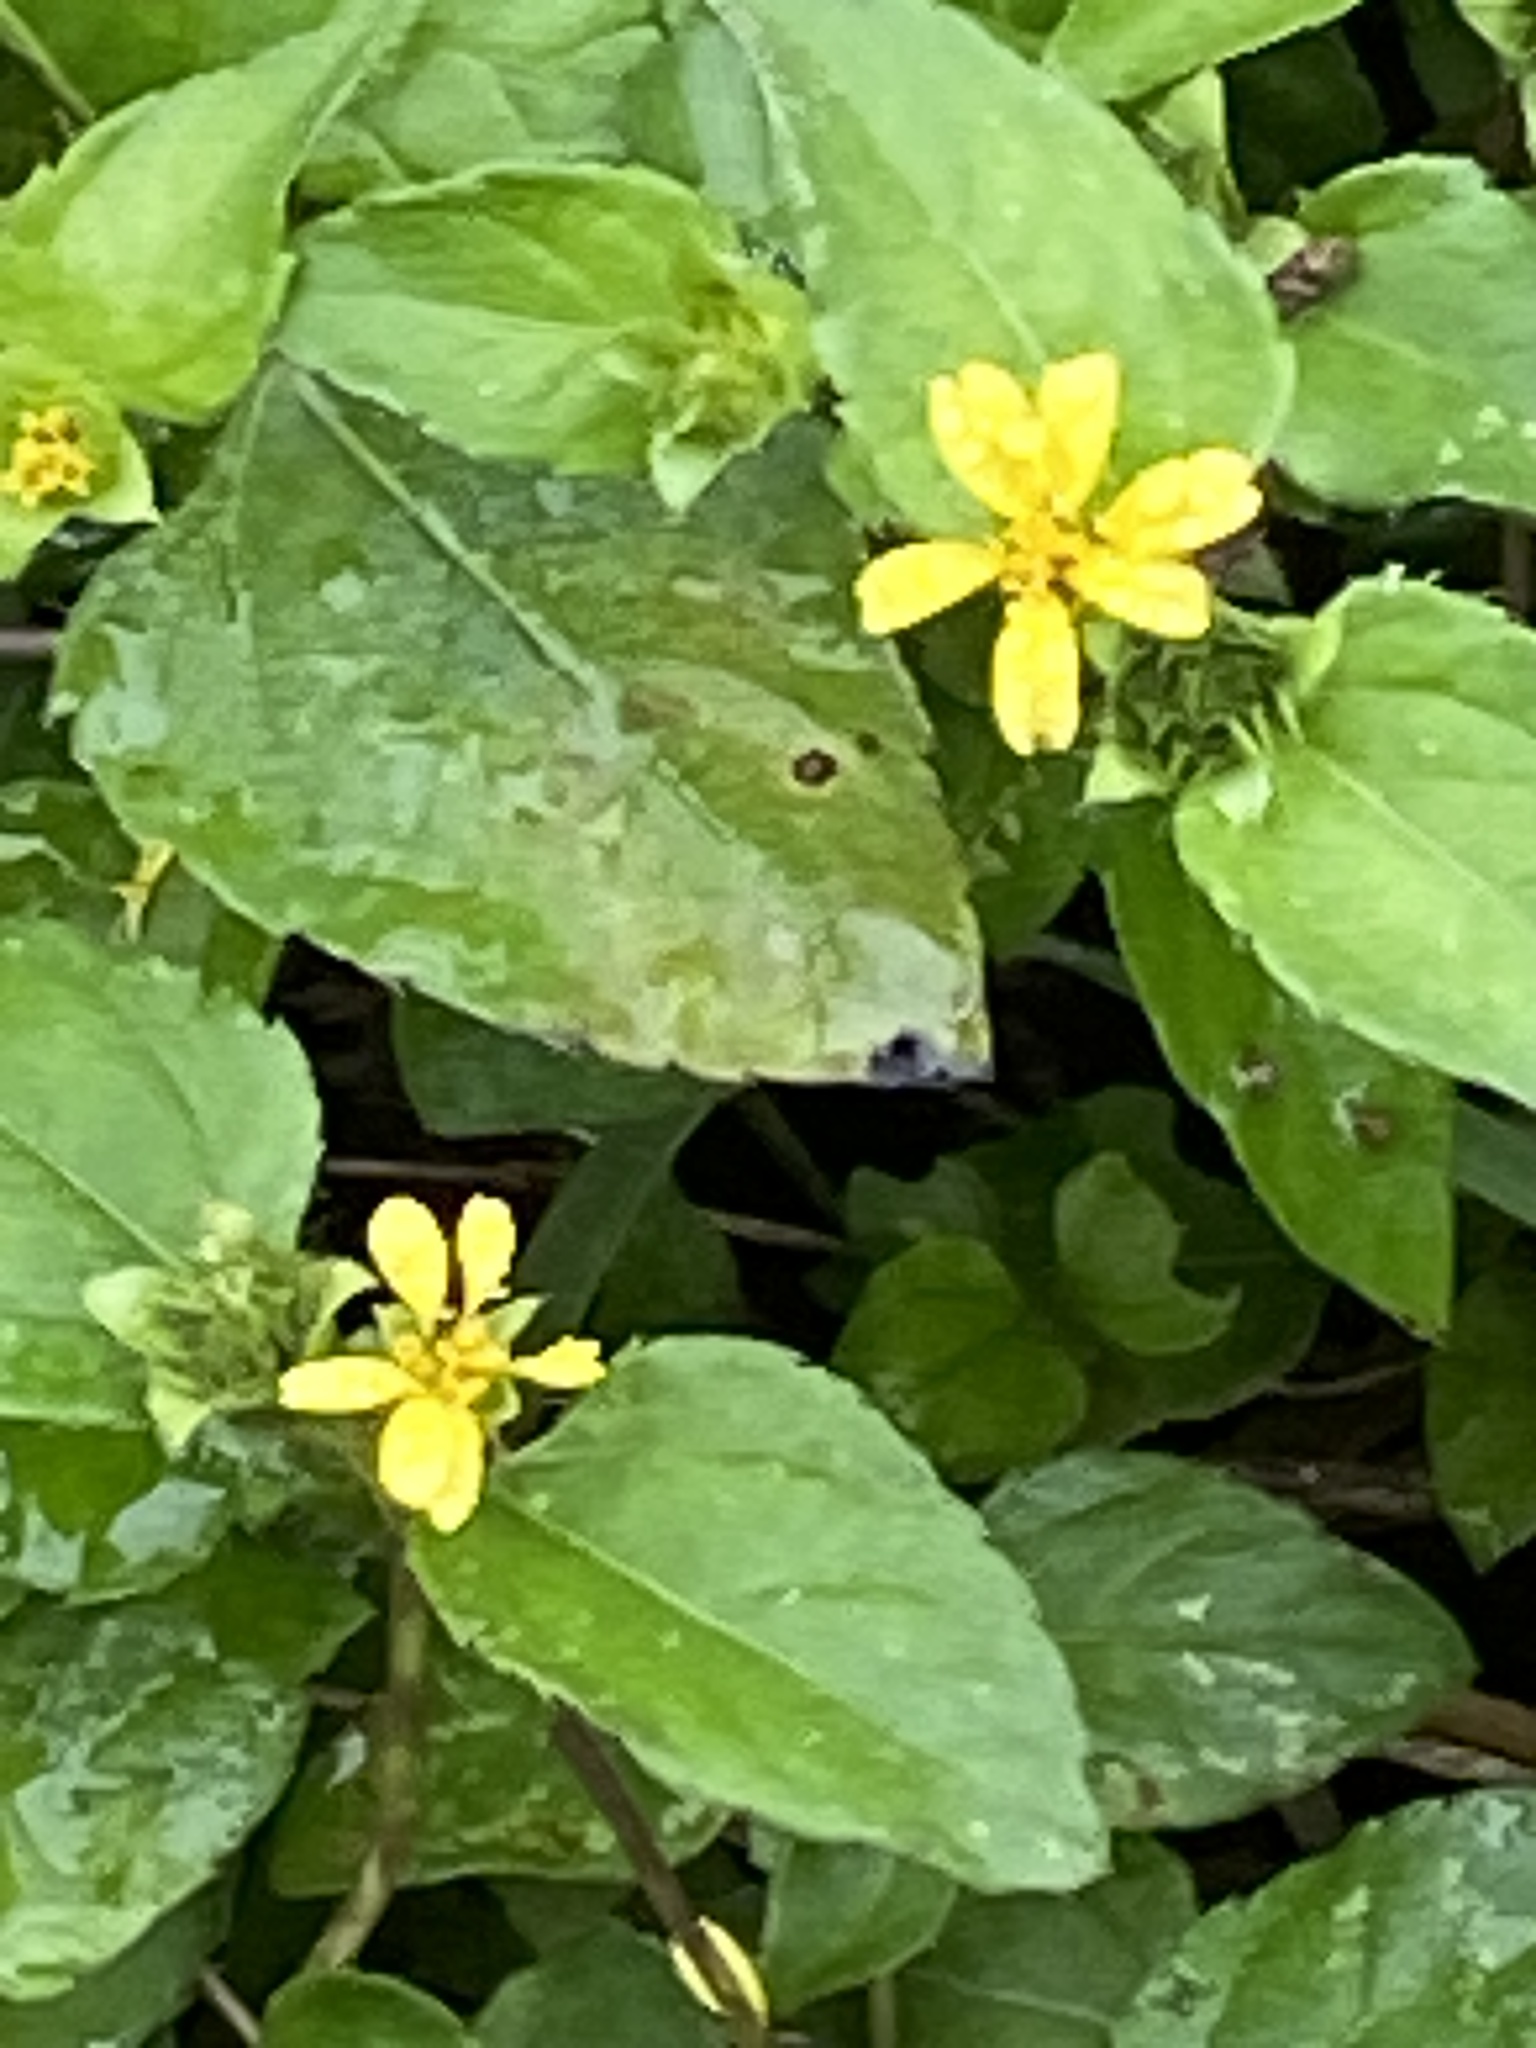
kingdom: Plantae
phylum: Tracheophyta
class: Magnoliopsida
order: Asterales
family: Asteraceae
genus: Calyptocarpus
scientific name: Calyptocarpus vialis
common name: Straggler daisy
